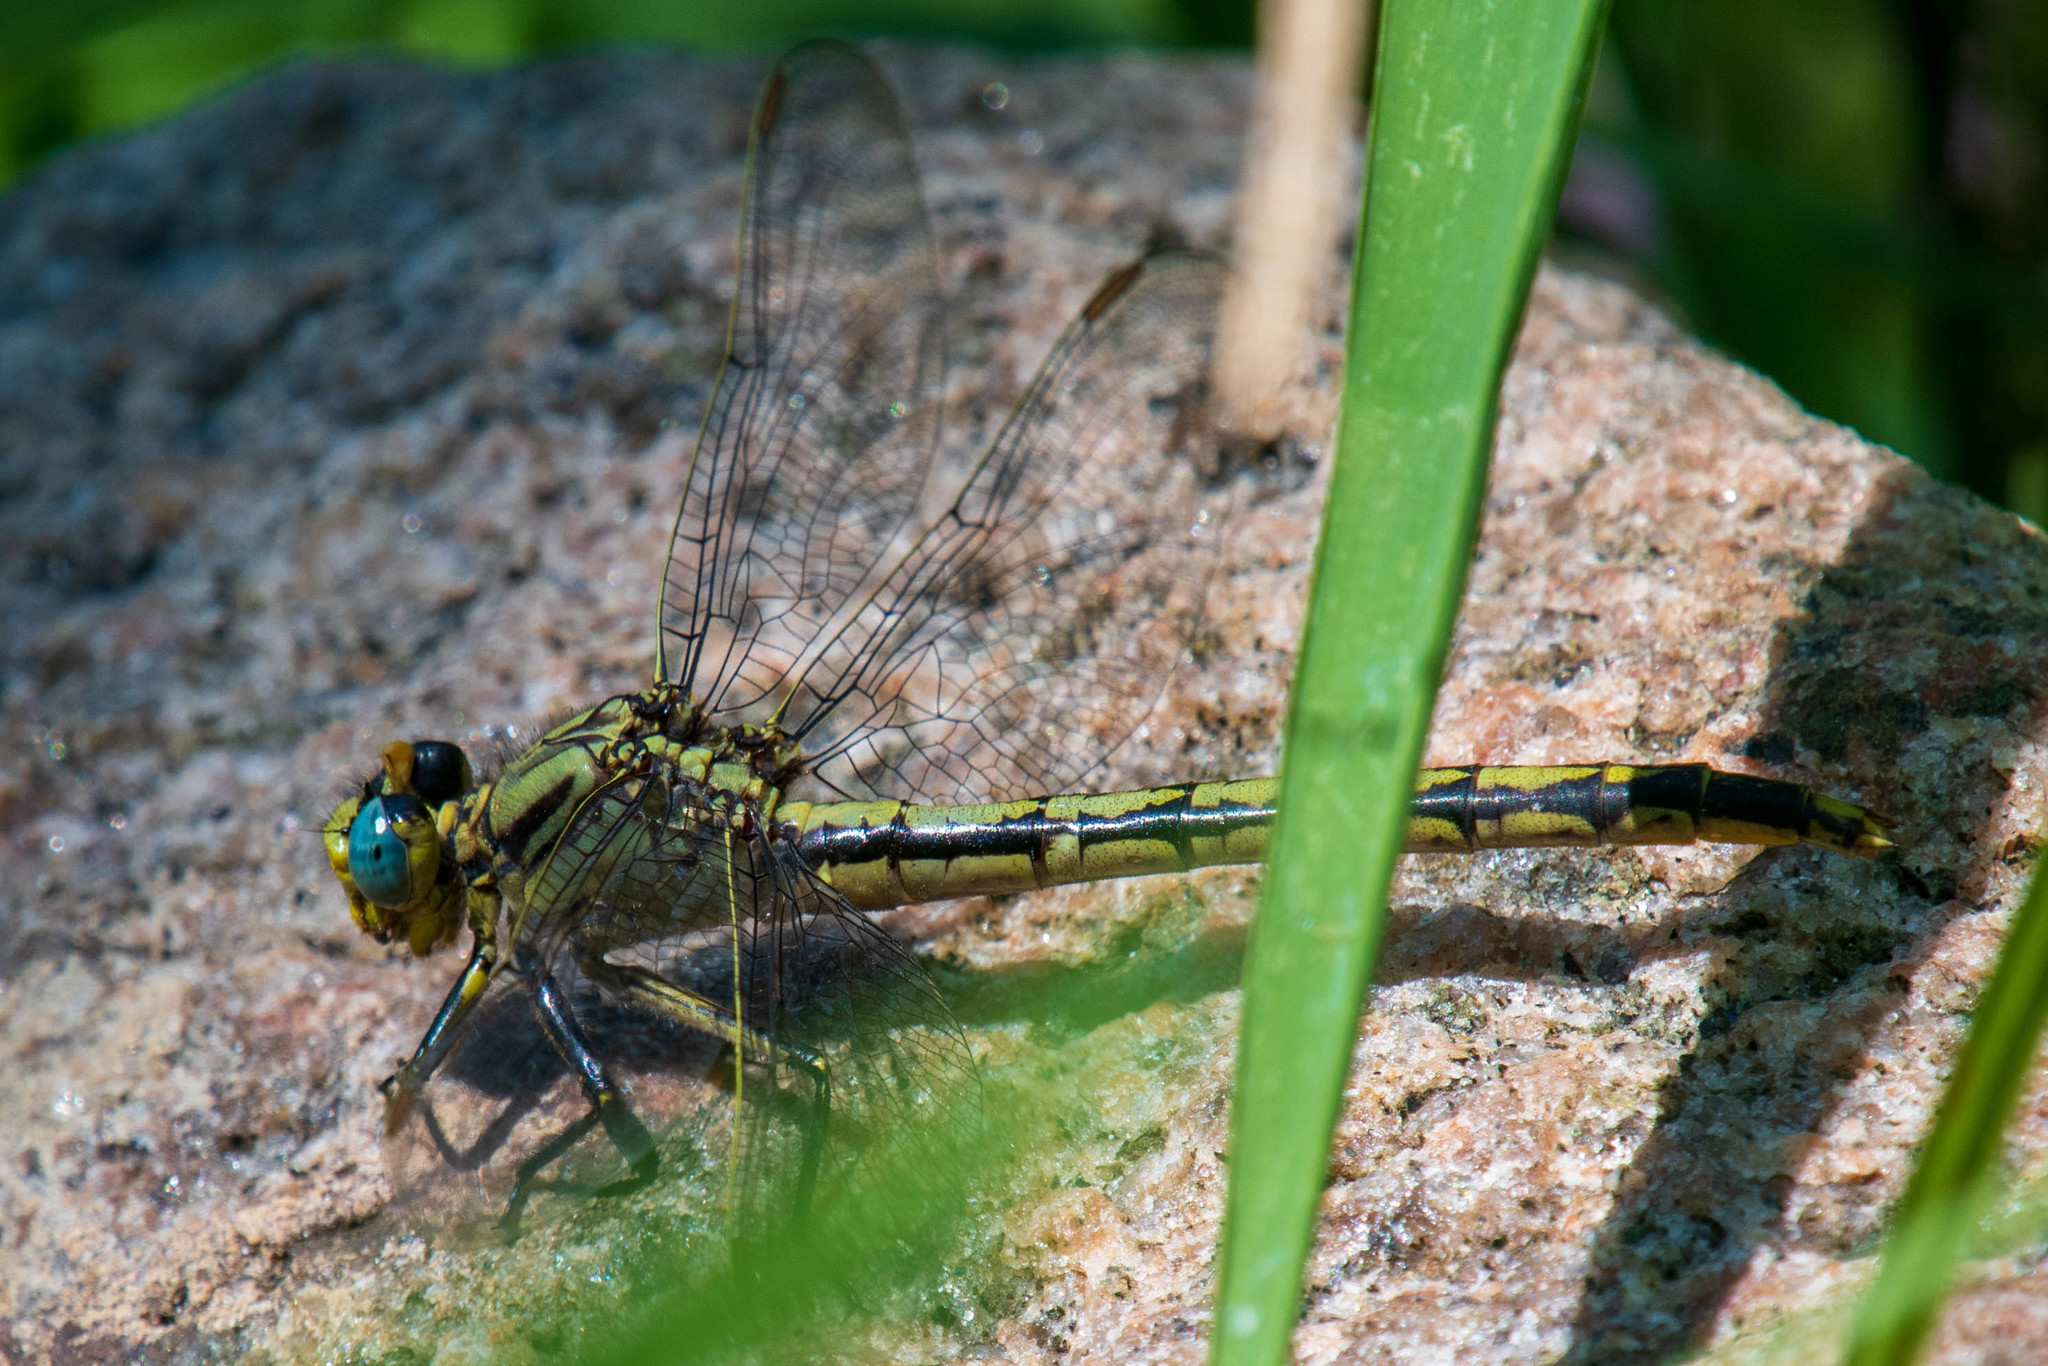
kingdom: Animalia
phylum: Arthropoda
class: Insecta
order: Odonata
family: Gomphidae
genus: Arigomphus
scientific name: Arigomphus cornutus
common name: Horned clubtail
